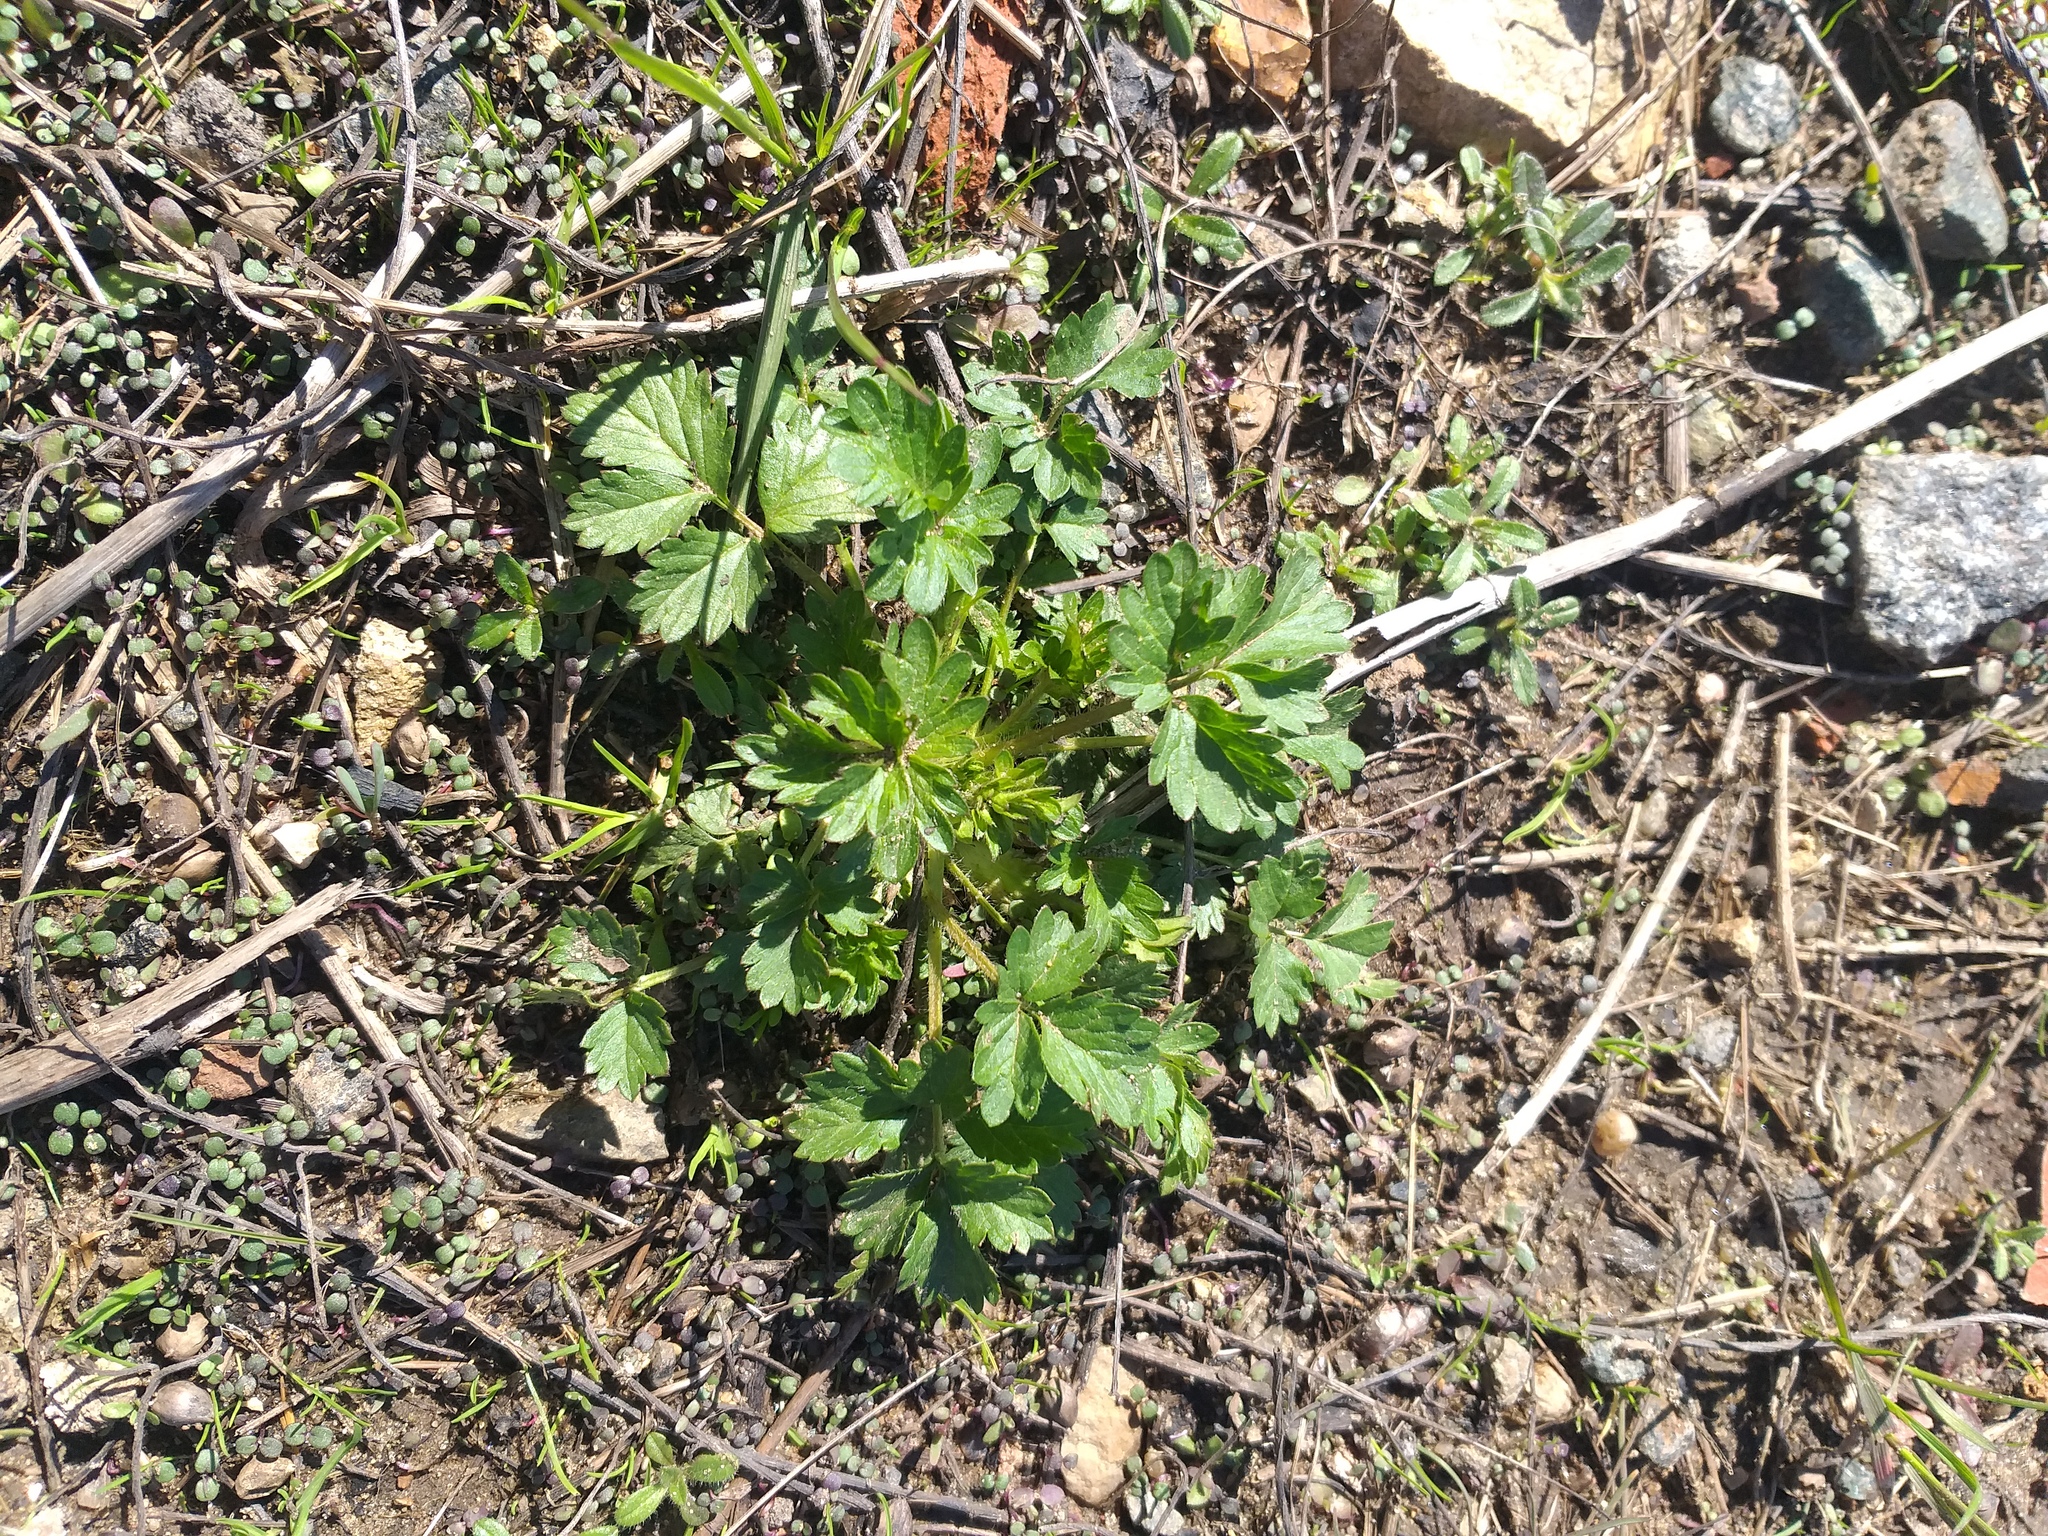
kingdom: Plantae
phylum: Tracheophyta
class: Magnoliopsida
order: Rosales
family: Rosaceae
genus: Potentilla
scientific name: Potentilla norvegica
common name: Ternate-leaved cinquefoil
